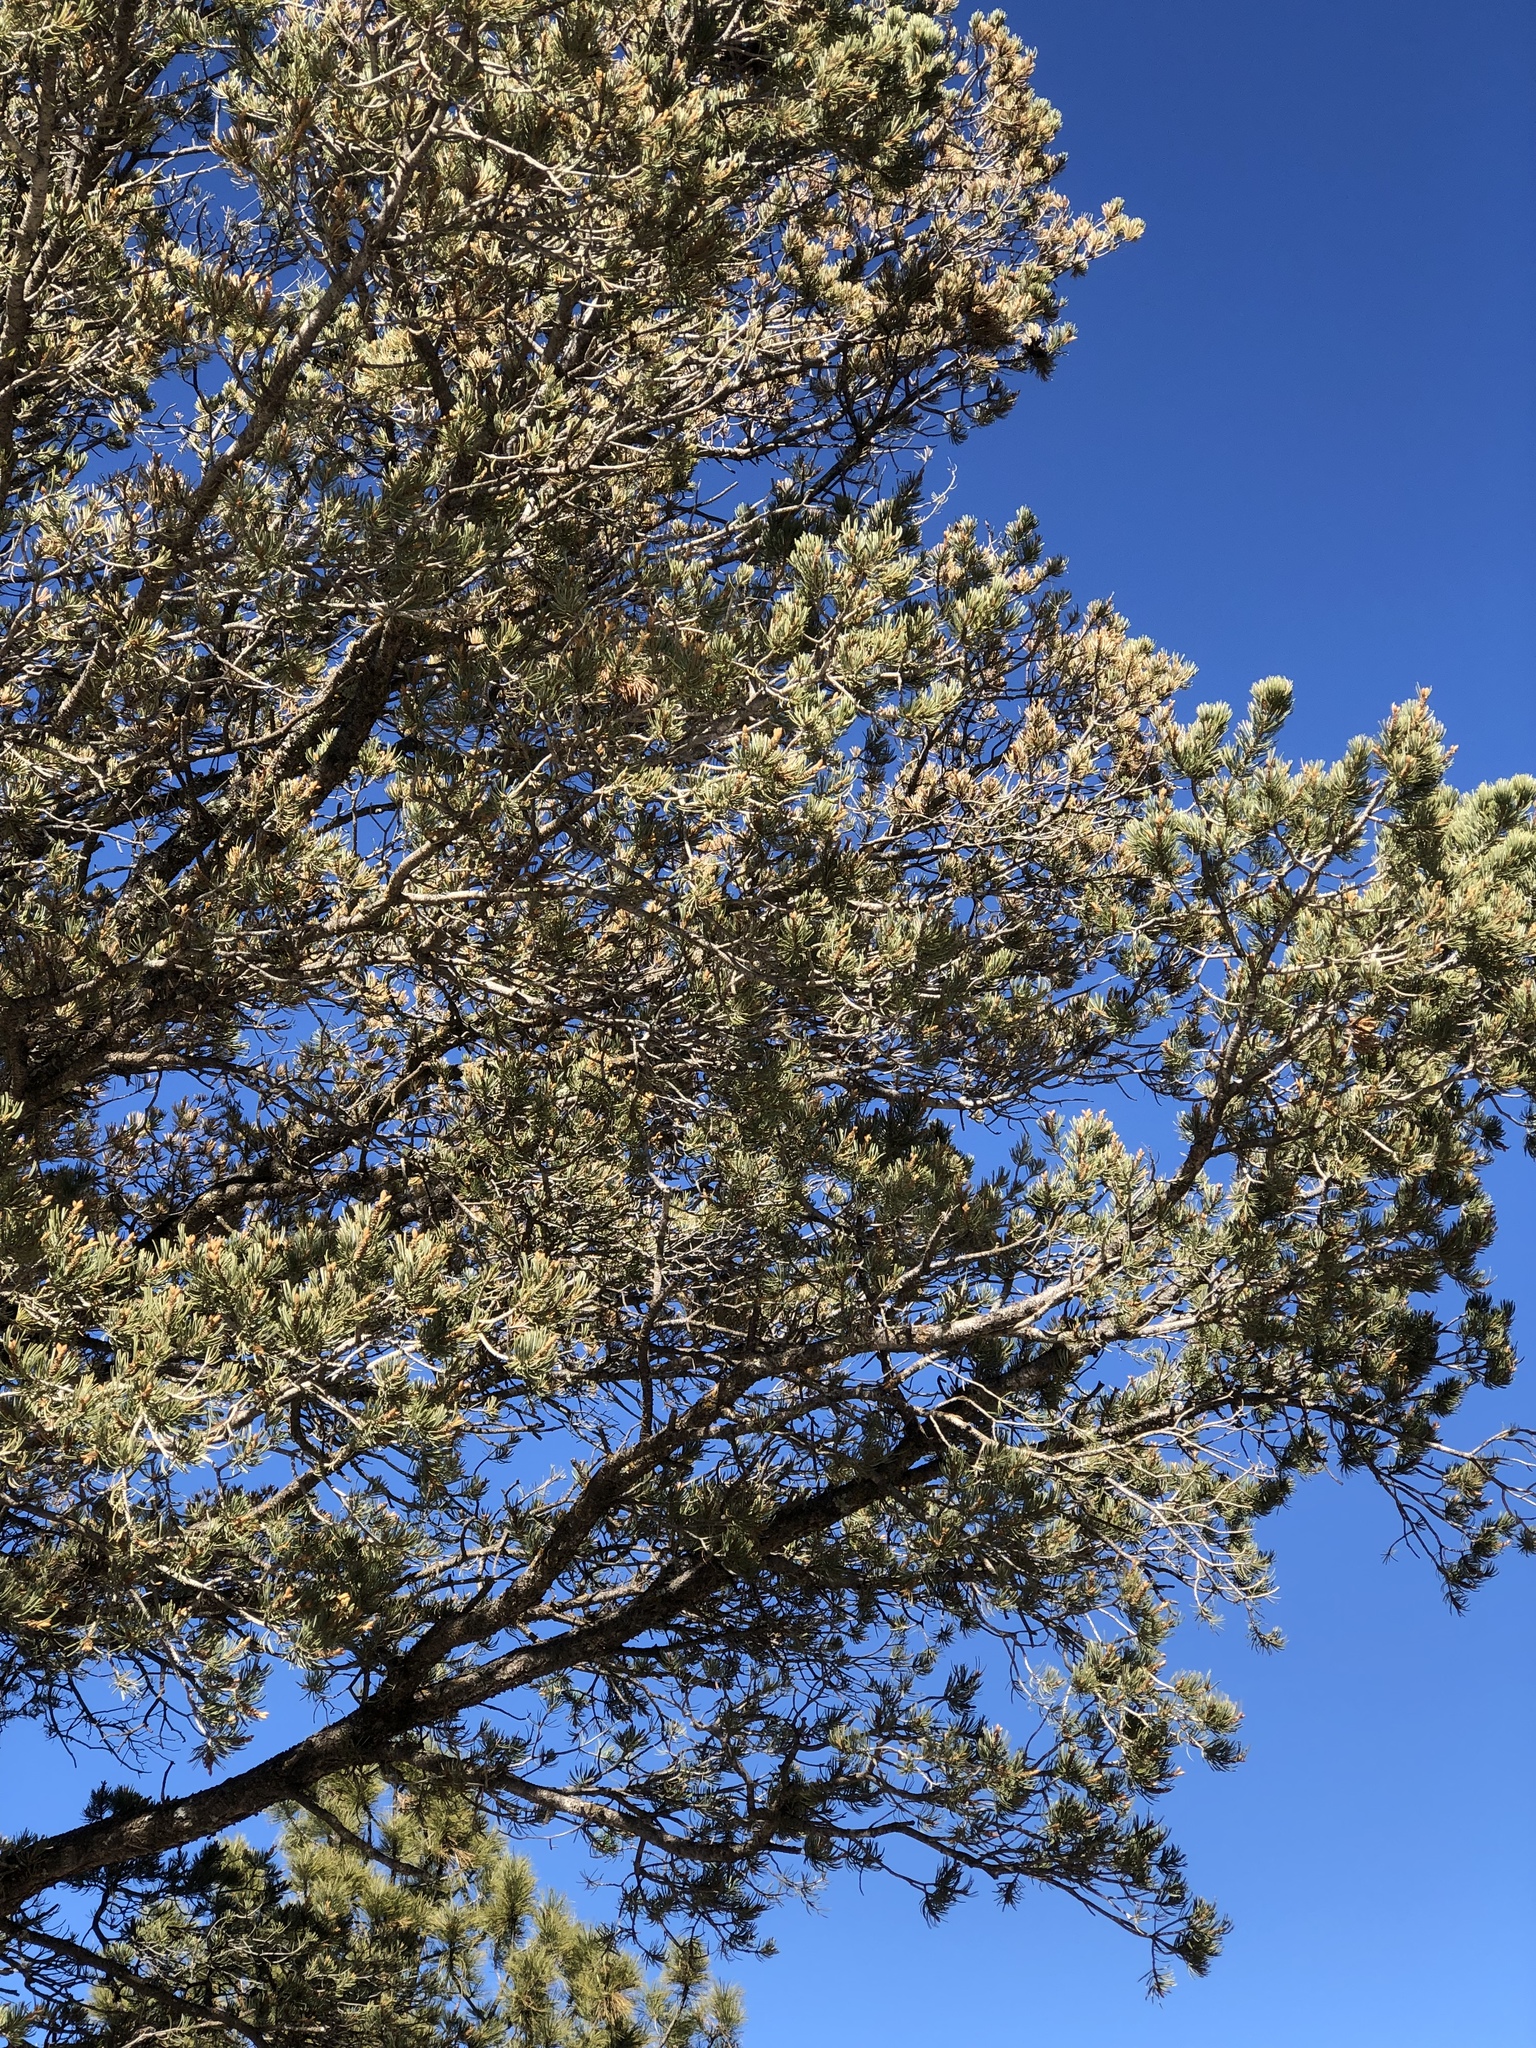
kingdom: Plantae
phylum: Tracheophyta
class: Pinopsida
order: Pinales
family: Pinaceae
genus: Pinus
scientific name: Pinus edulis
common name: Colorado pinyon
